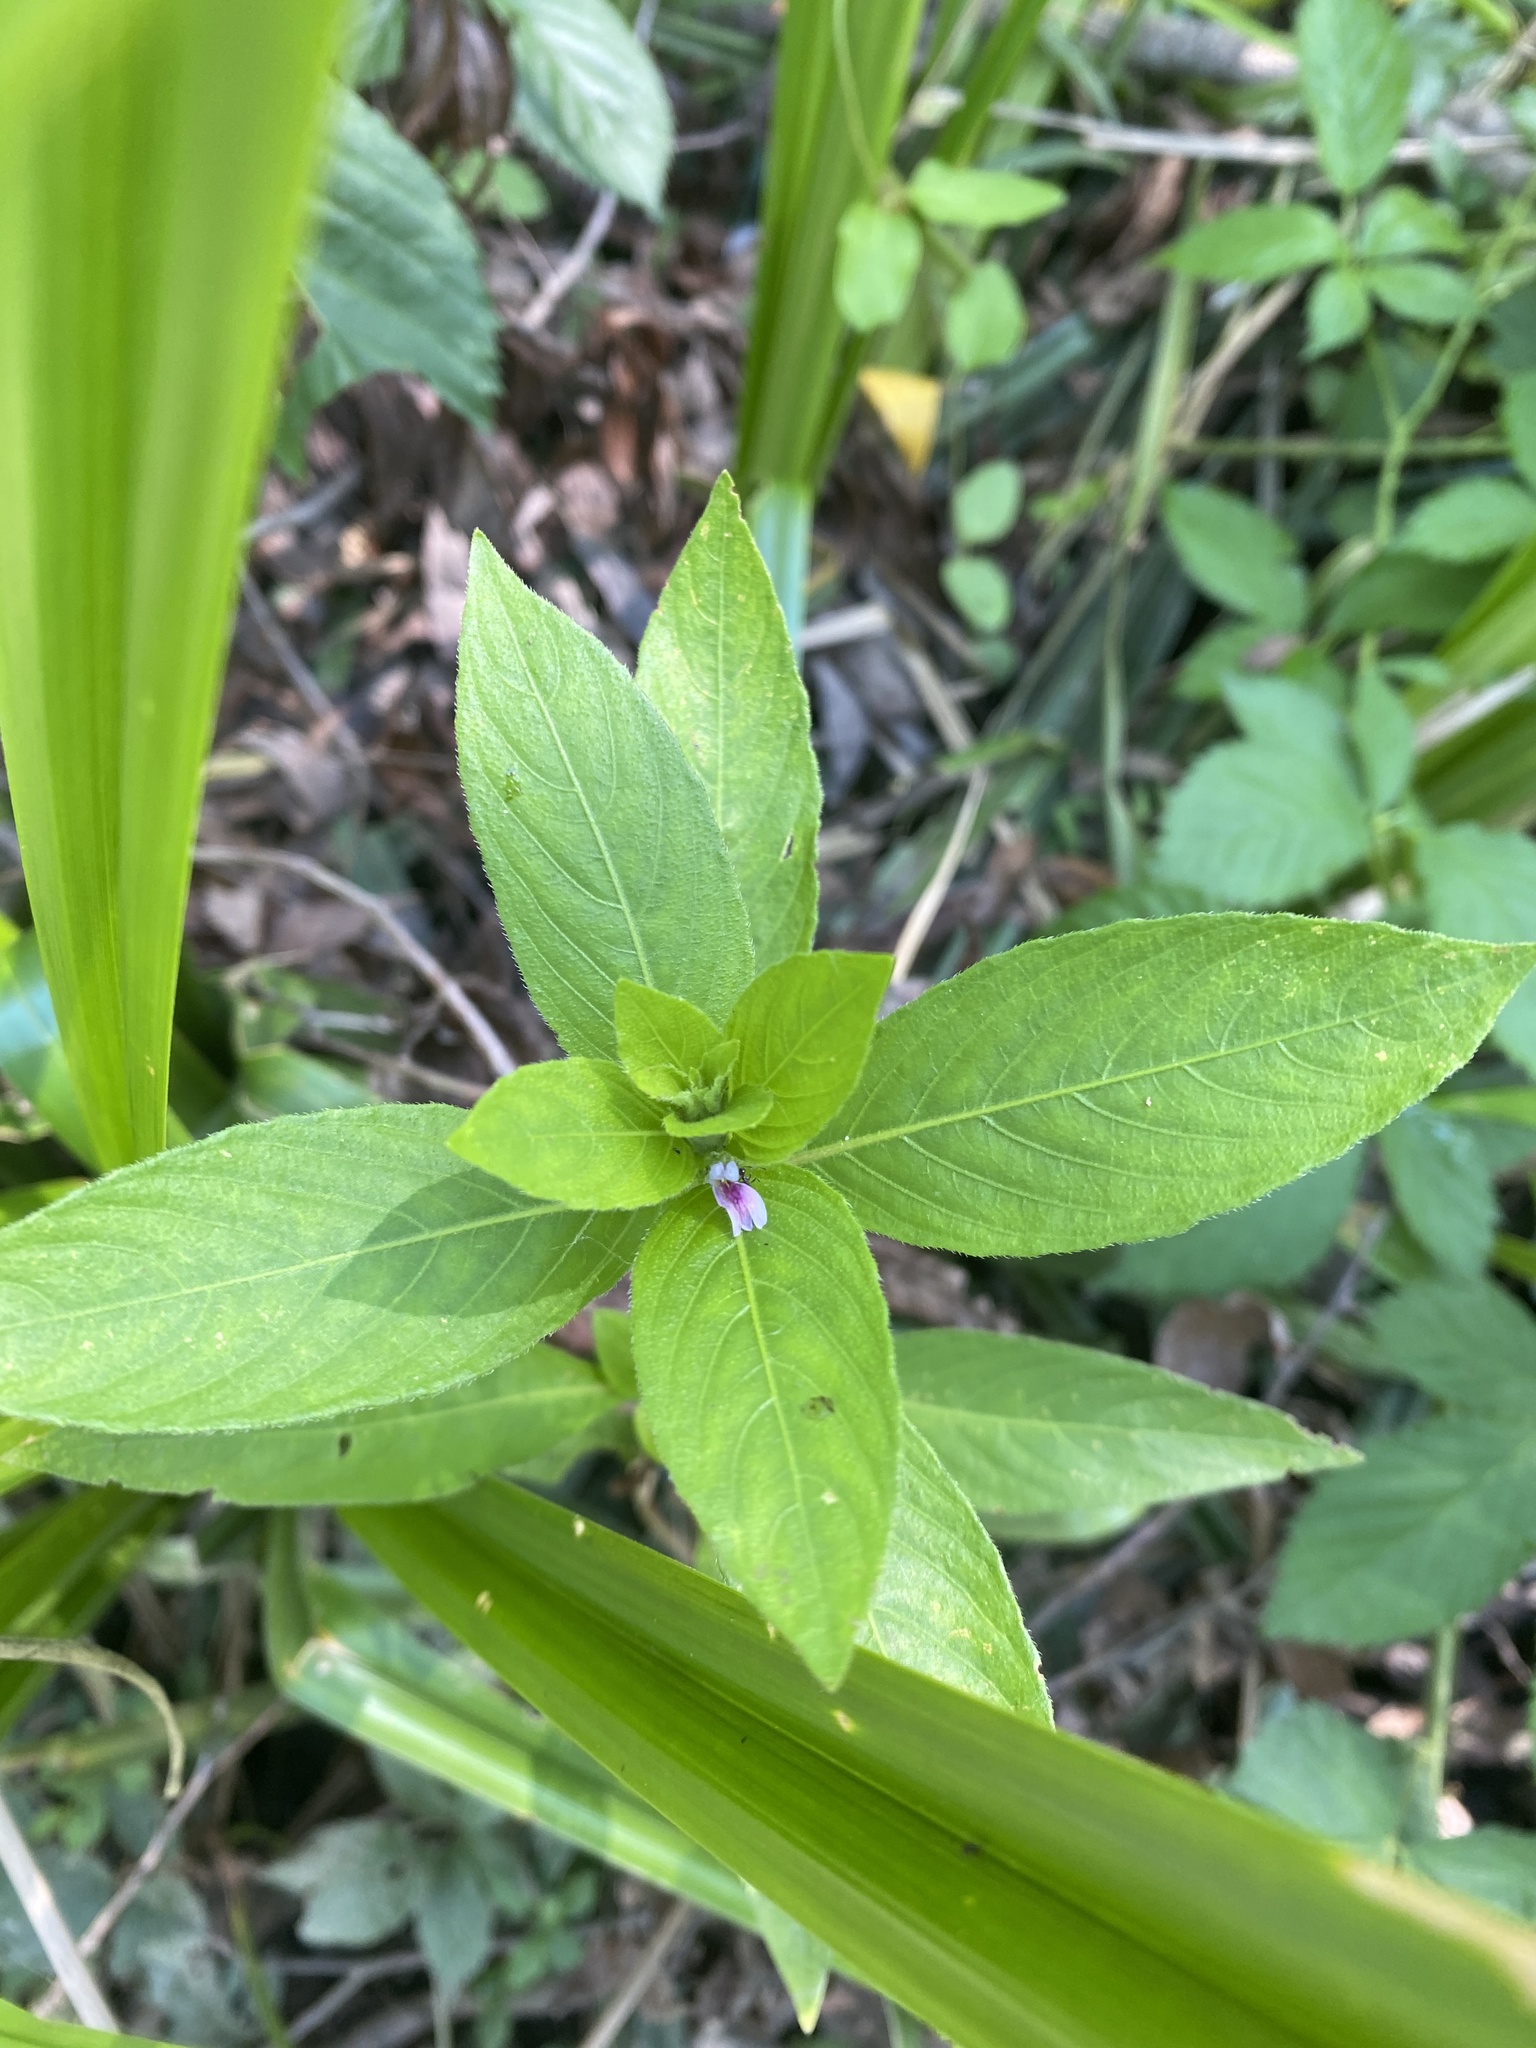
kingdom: Plantae
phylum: Tracheophyta
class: Magnoliopsida
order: Lamiales
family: Acanthaceae
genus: Hygrophila
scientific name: Hygrophila costata
